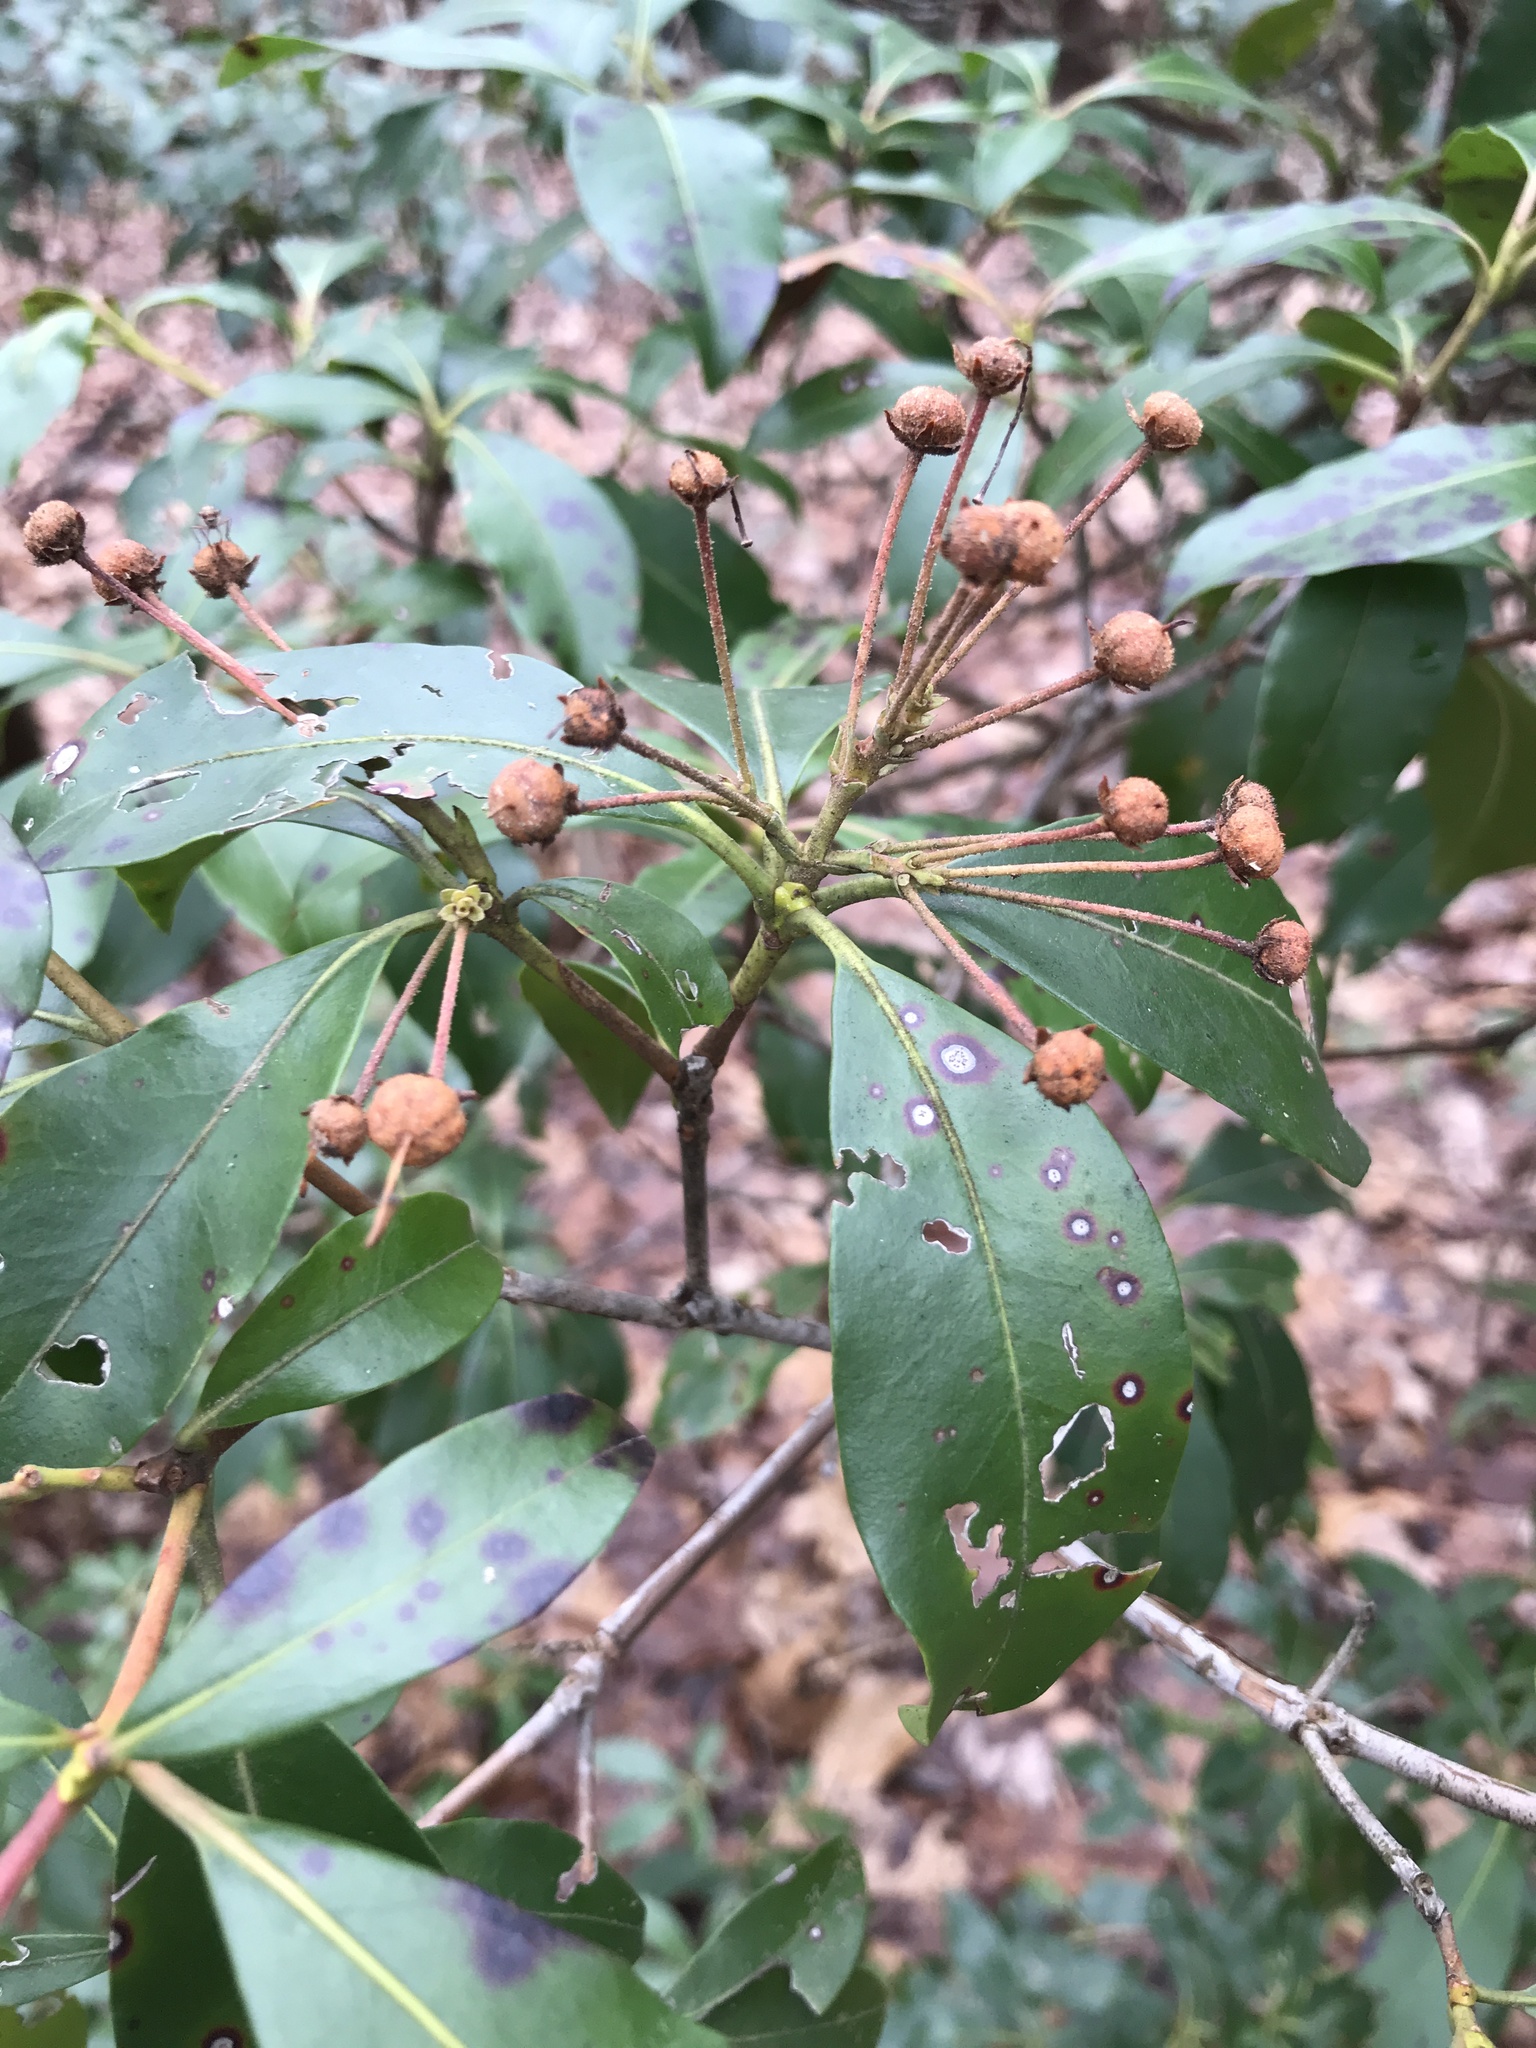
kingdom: Fungi
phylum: Ascomycota
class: Dothideomycetes
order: Mycosphaerellales
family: Mycosphaerellaceae
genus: Mycosphaerella
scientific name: Mycosphaerella colorata
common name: Mountain laurel leaf spot
